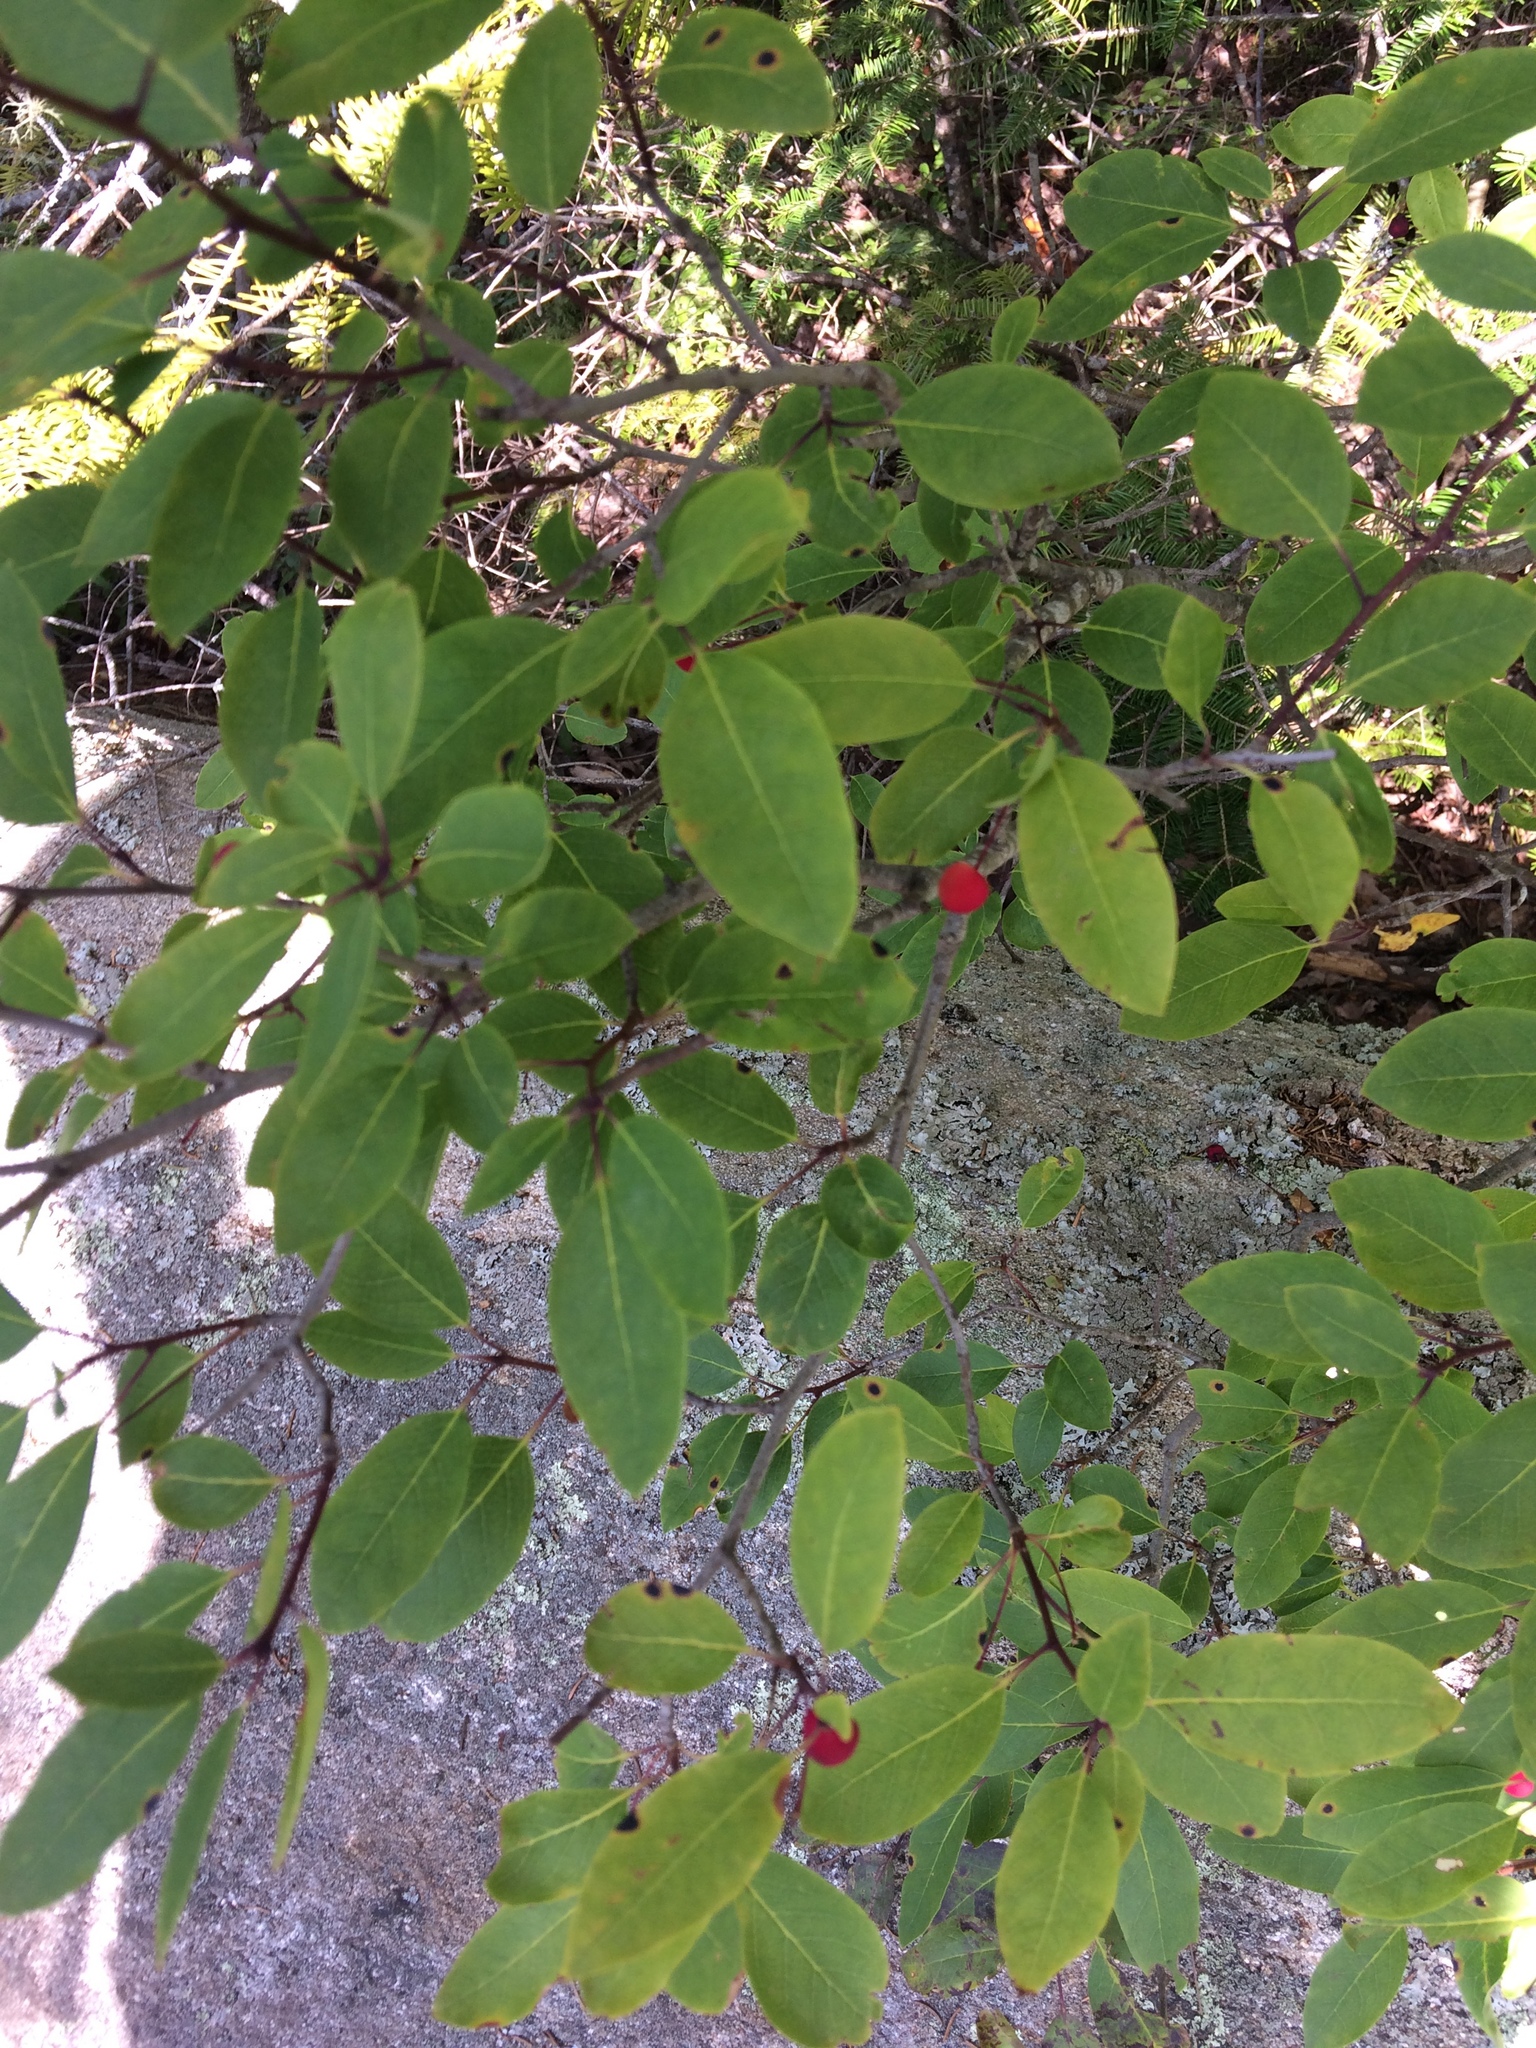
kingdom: Plantae
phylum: Tracheophyta
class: Magnoliopsida
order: Aquifoliales
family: Aquifoliaceae
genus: Ilex
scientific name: Ilex mucronata
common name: Catberry
